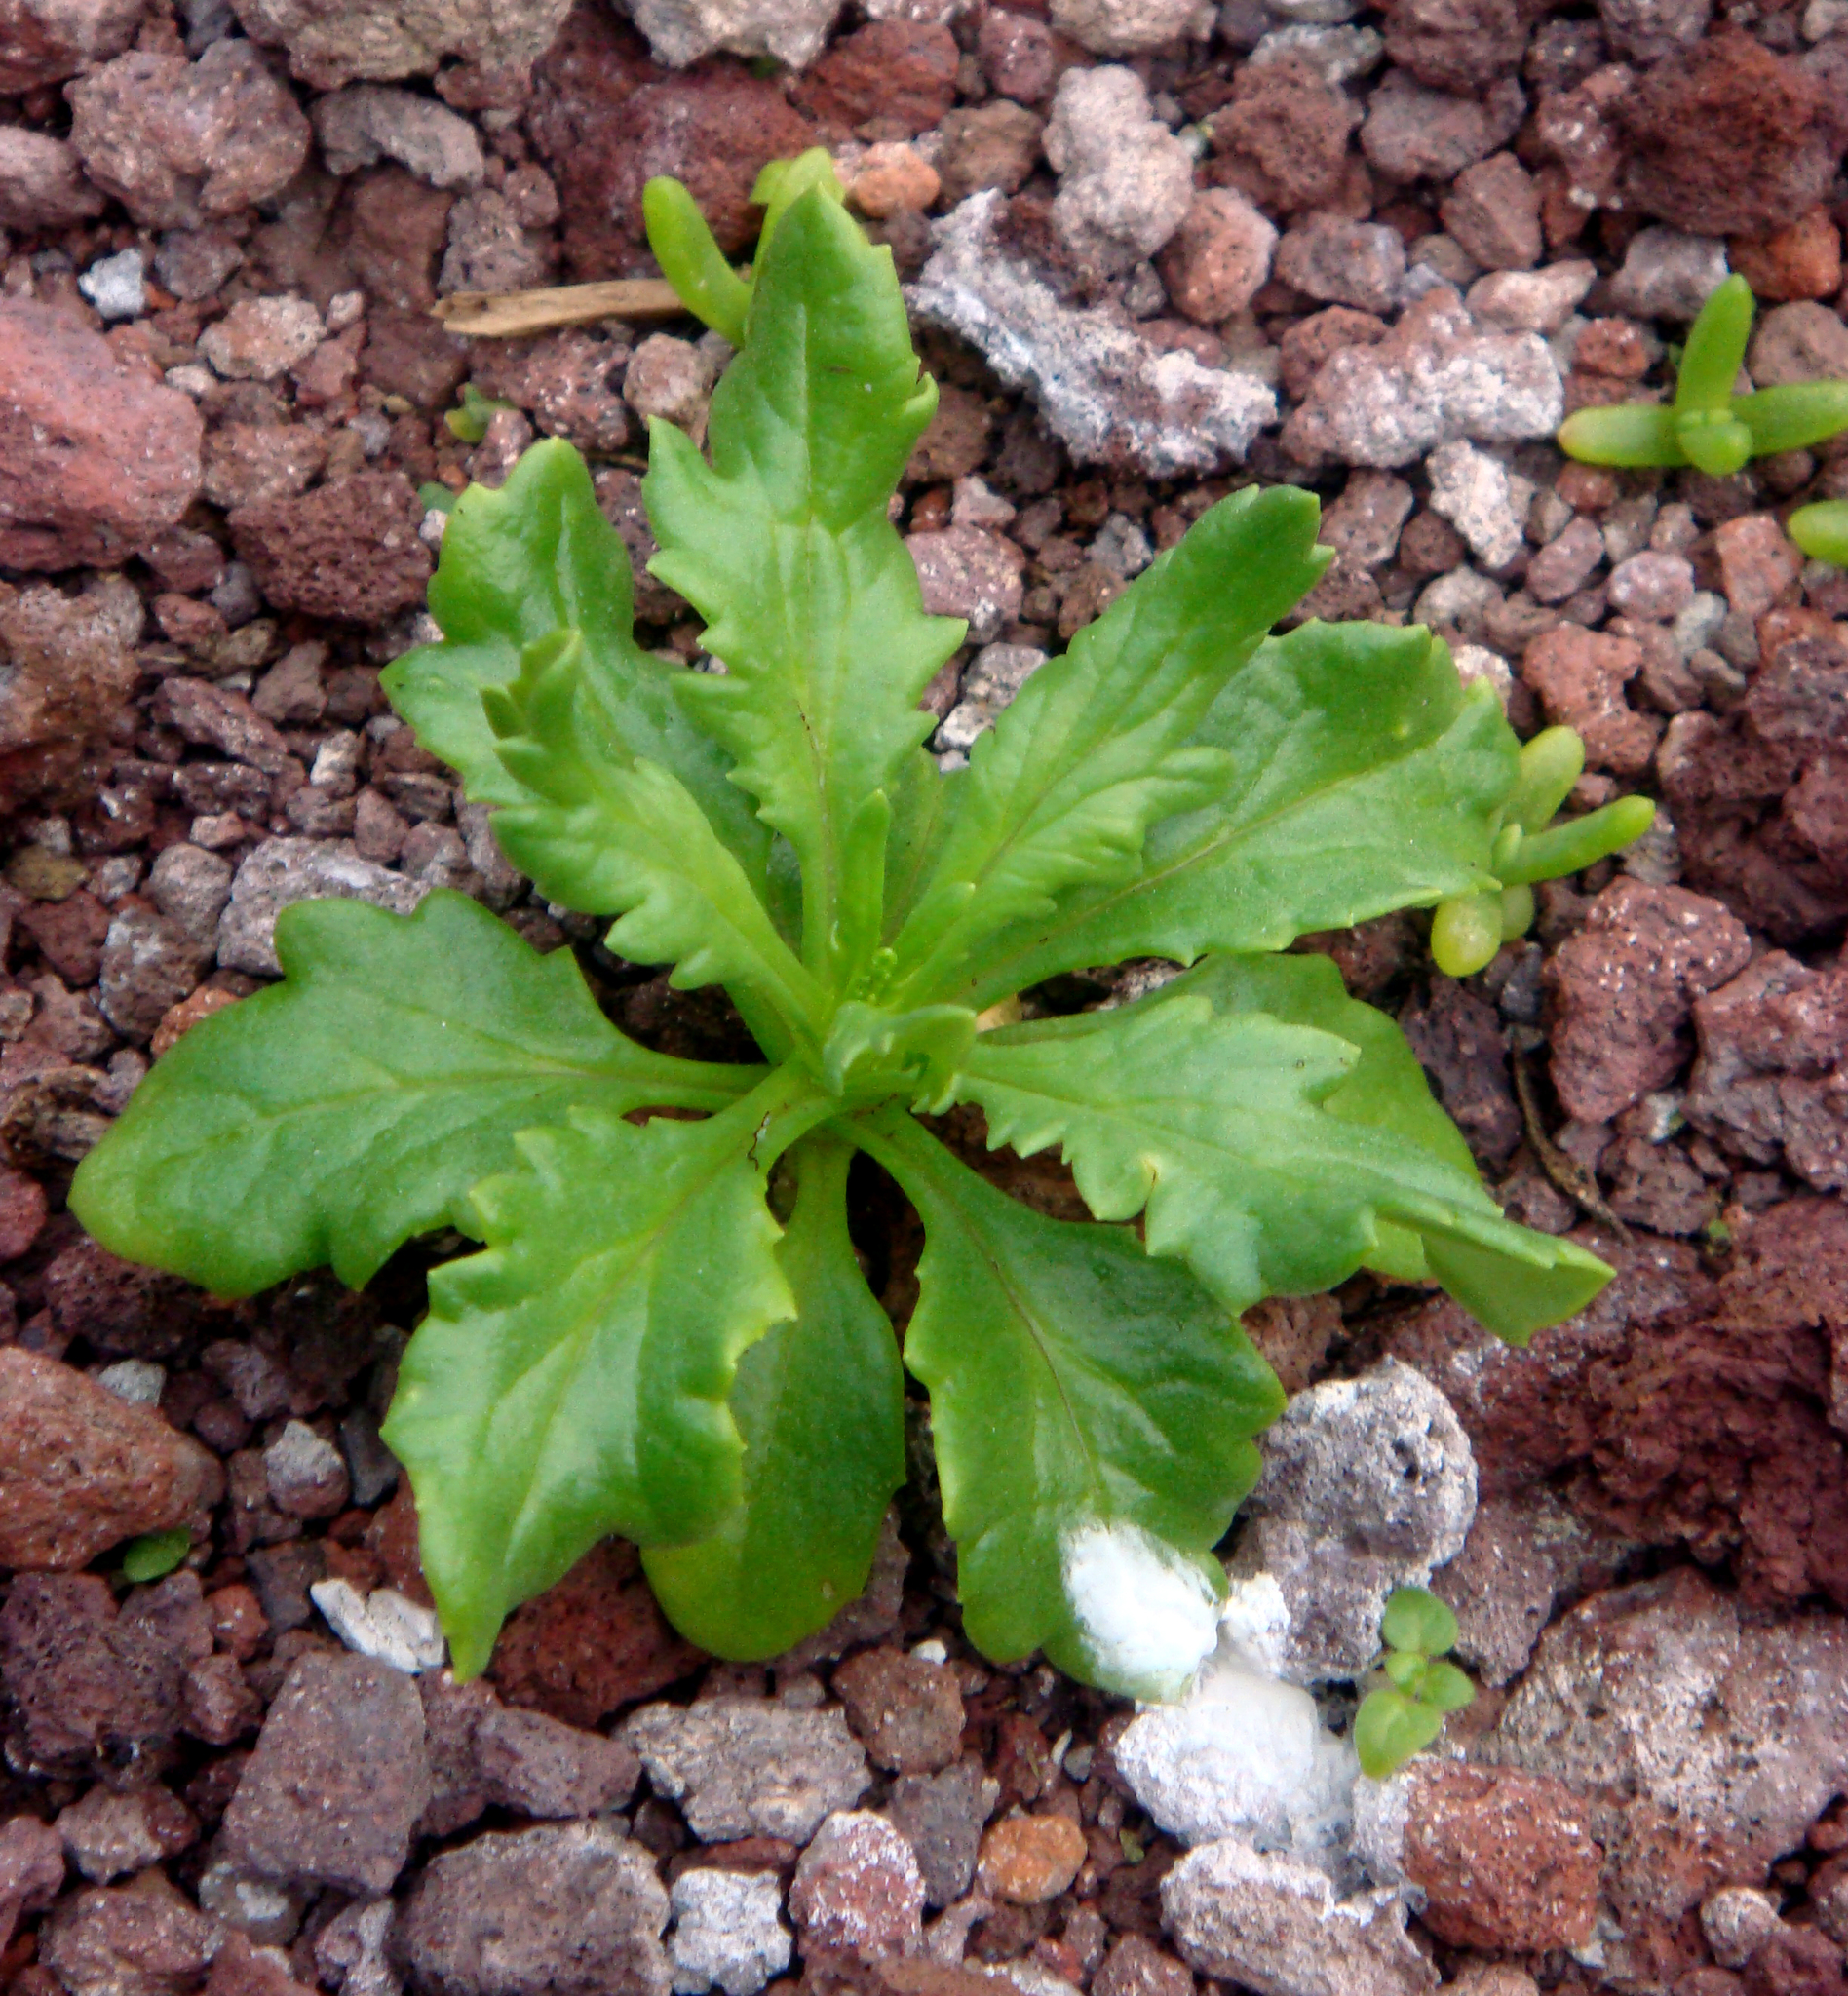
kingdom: Plantae
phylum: Tracheophyta
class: Magnoliopsida
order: Asterales
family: Asteraceae
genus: Senecio
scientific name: Senecio esperensis
